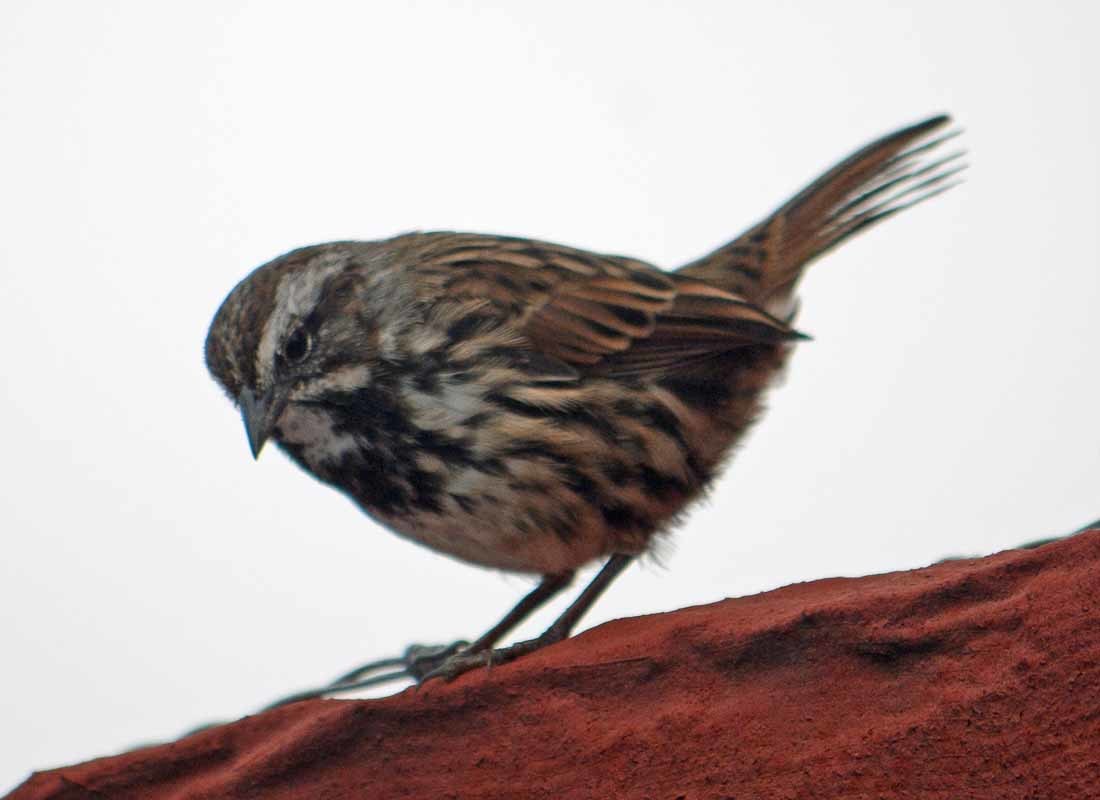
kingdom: Animalia
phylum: Chordata
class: Aves
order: Passeriformes
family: Passerellidae
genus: Melospiza
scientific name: Melospiza melodia
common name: Song sparrow
